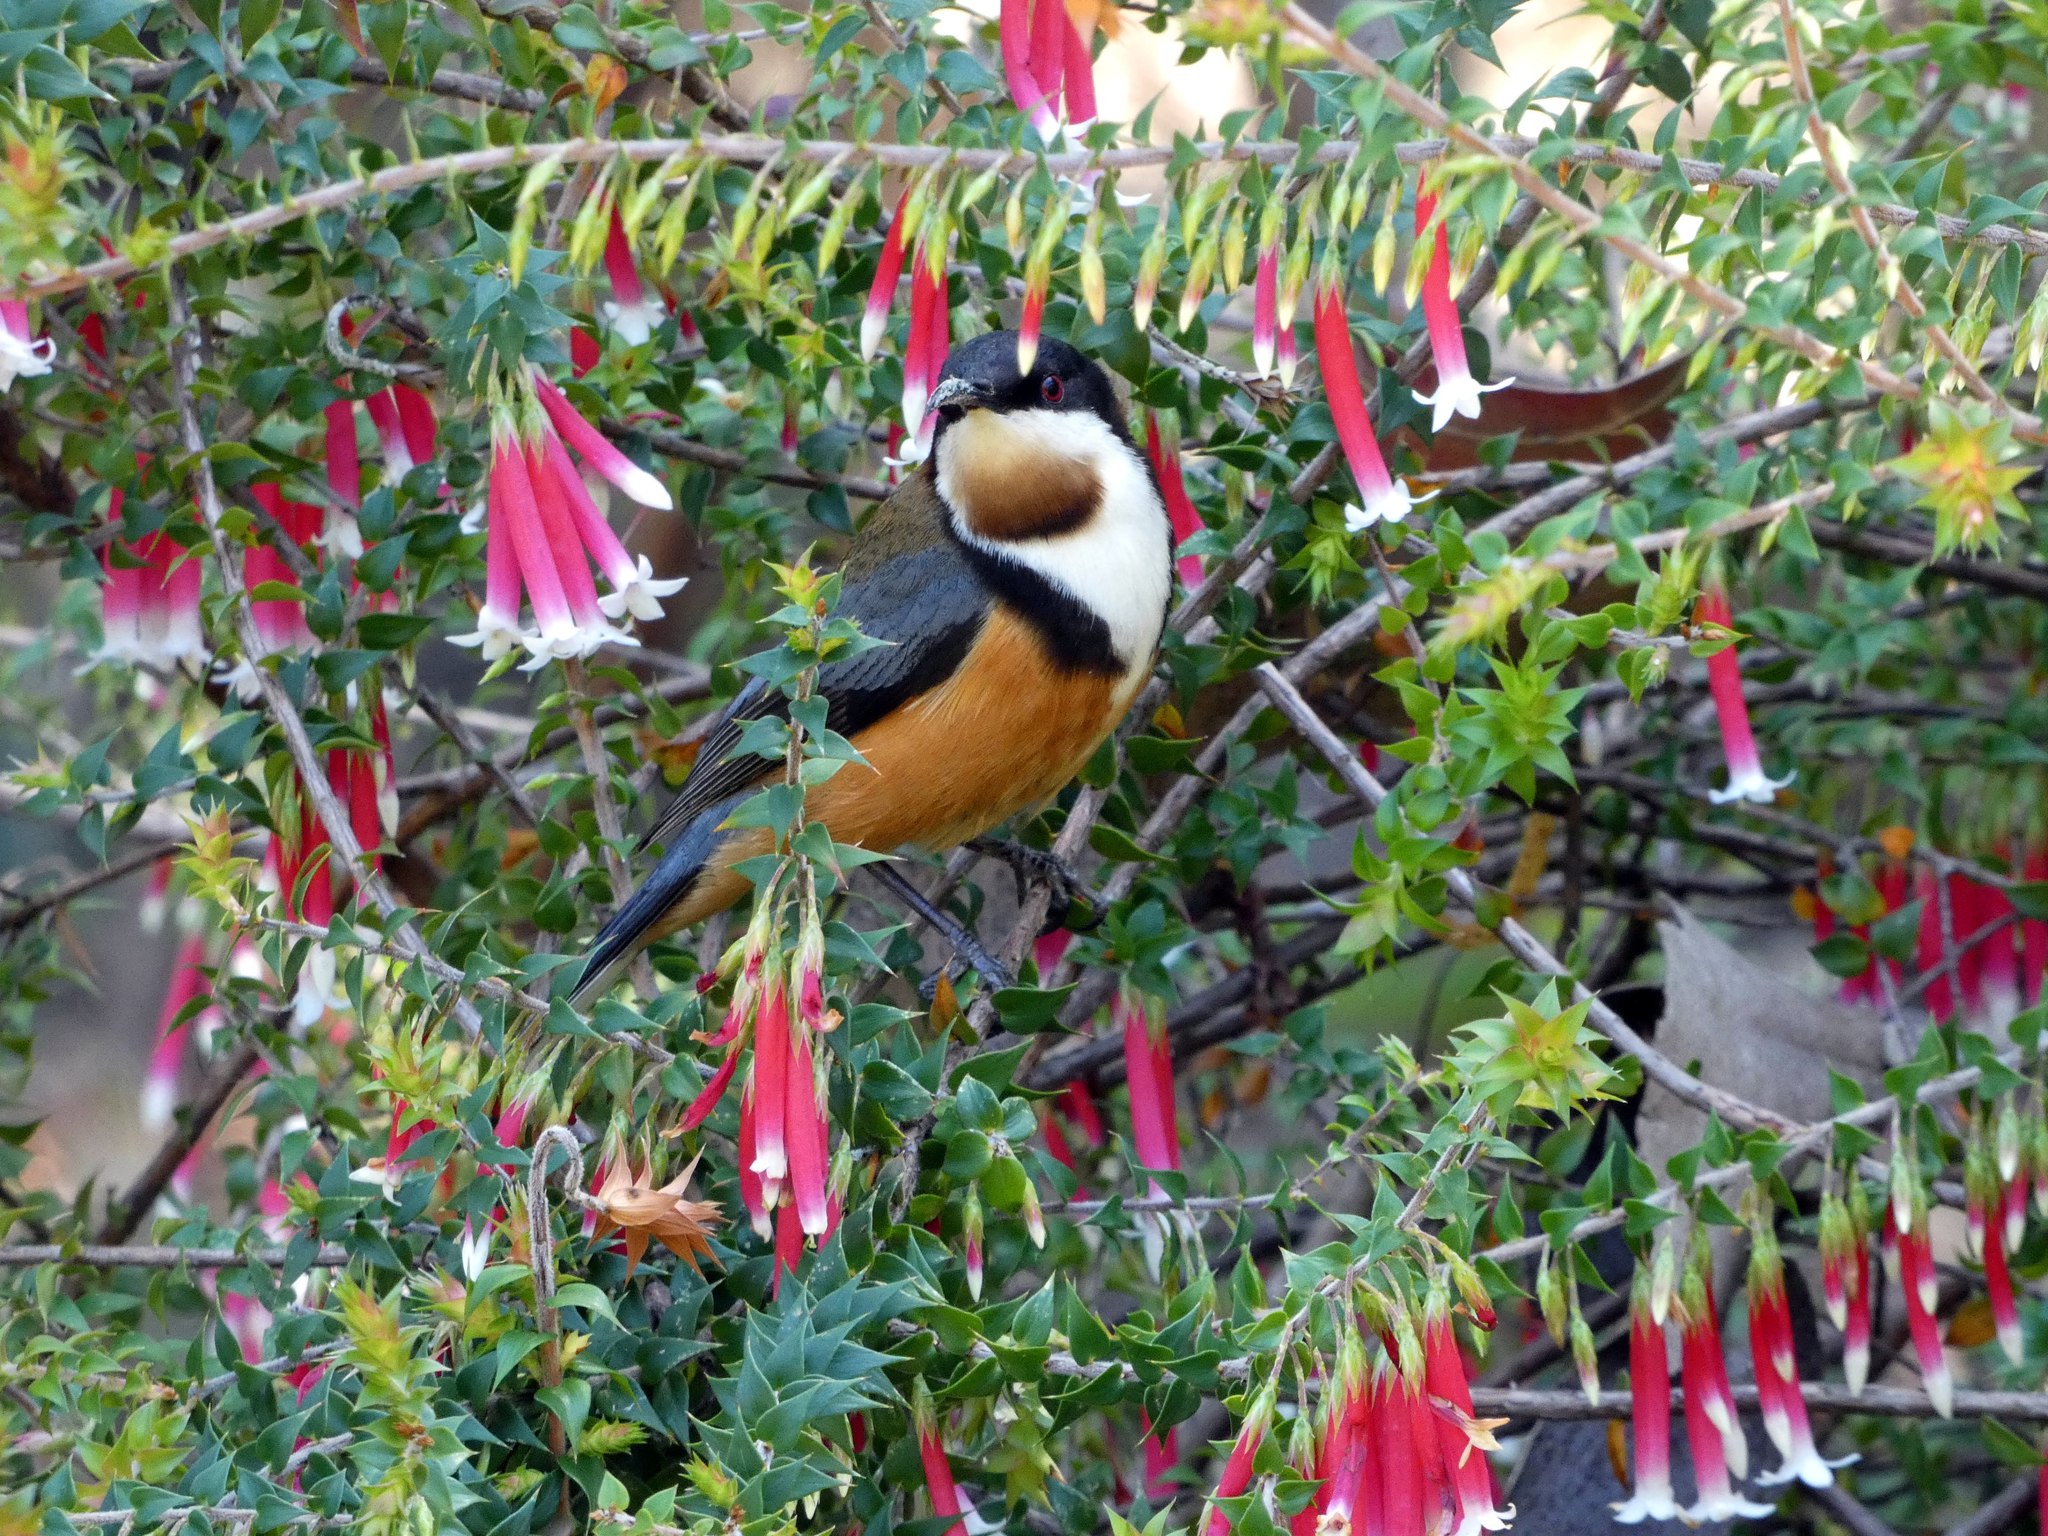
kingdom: Animalia
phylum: Chordata
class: Aves
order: Passeriformes
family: Meliphagidae
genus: Acanthorhynchus
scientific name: Acanthorhynchus tenuirostris
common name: Eastern spinebill
